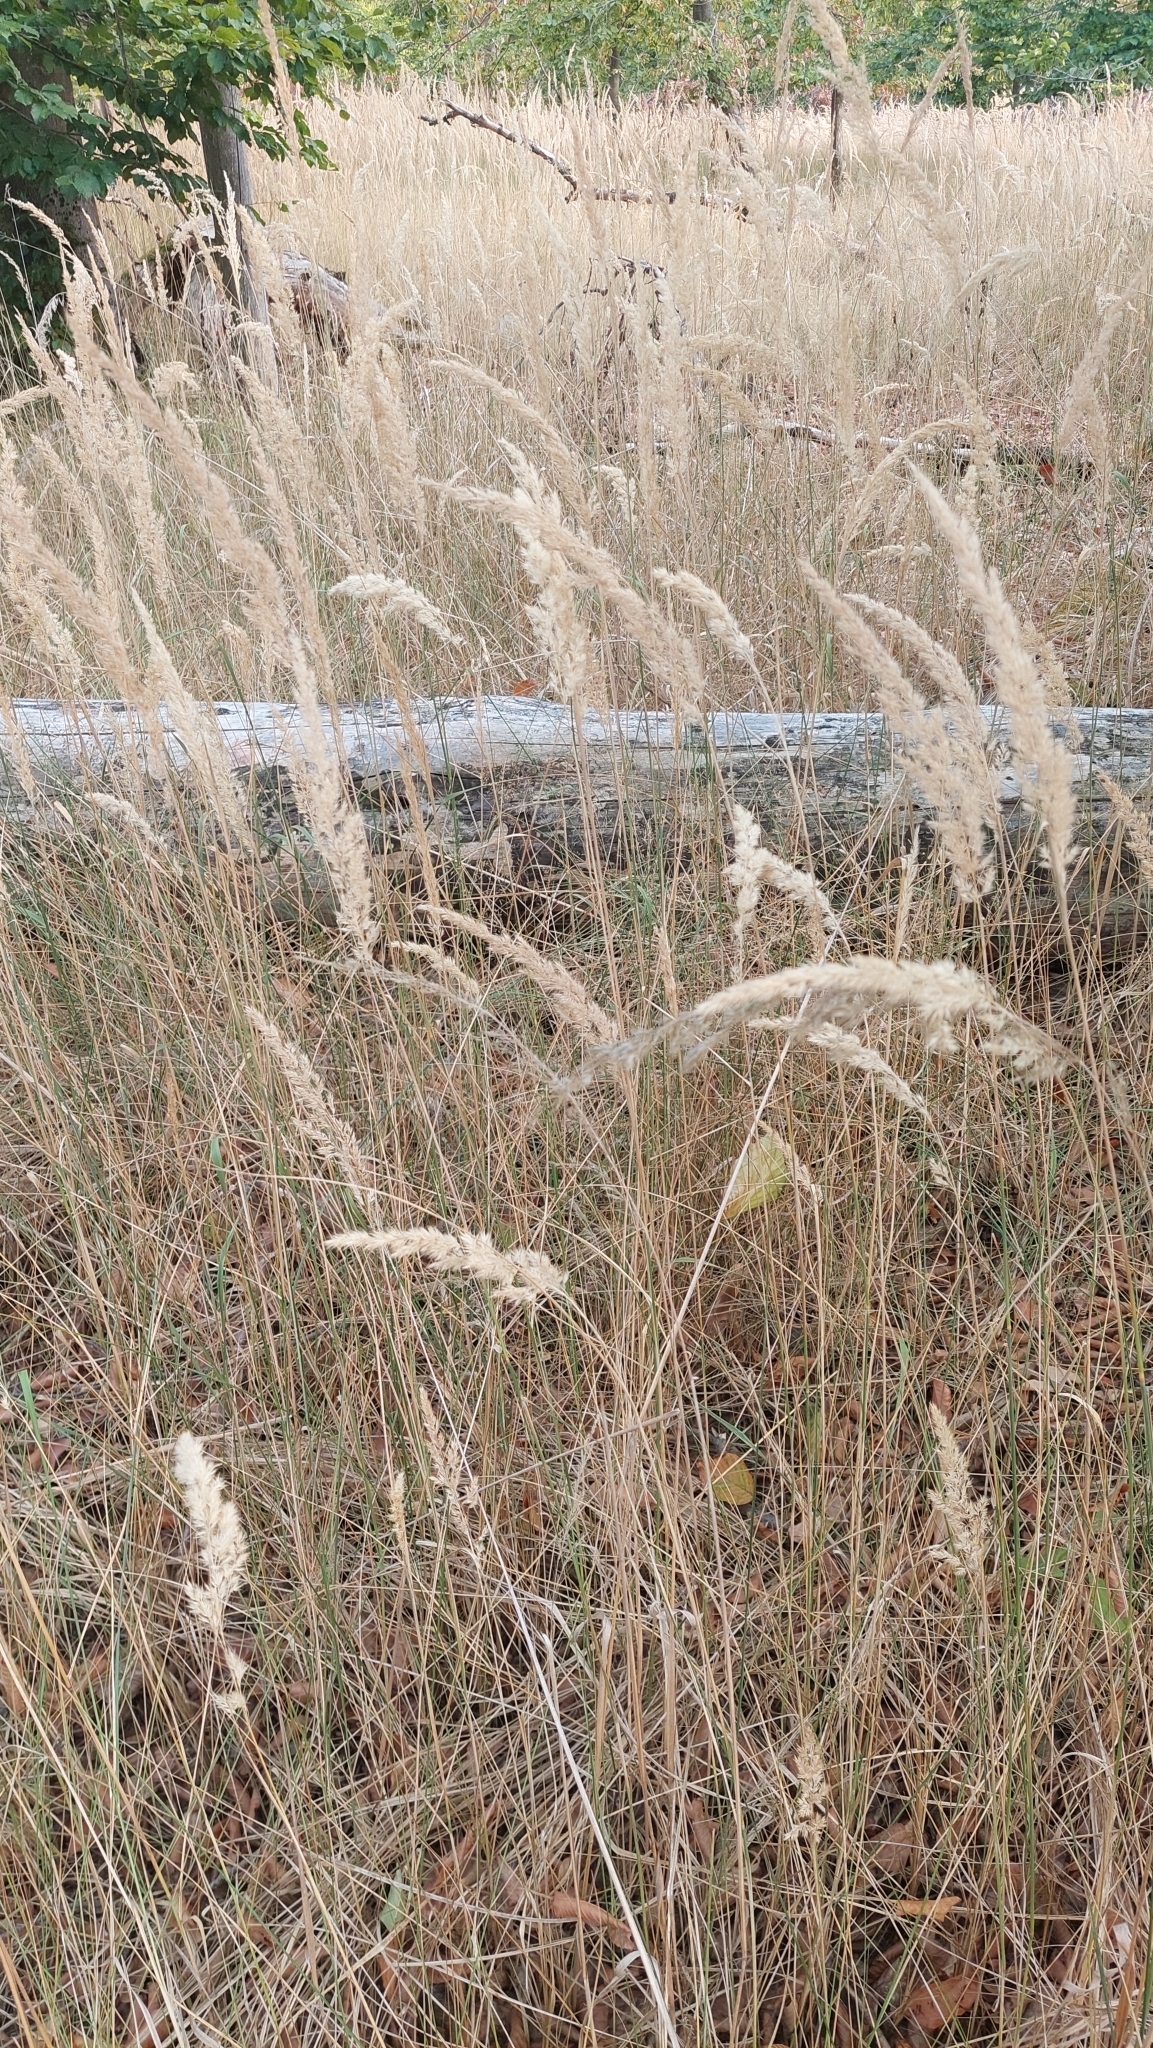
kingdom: Plantae
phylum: Tracheophyta
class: Liliopsida
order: Poales
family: Poaceae
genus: Calamagrostis
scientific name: Calamagrostis epigejos
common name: Wood small-reed
